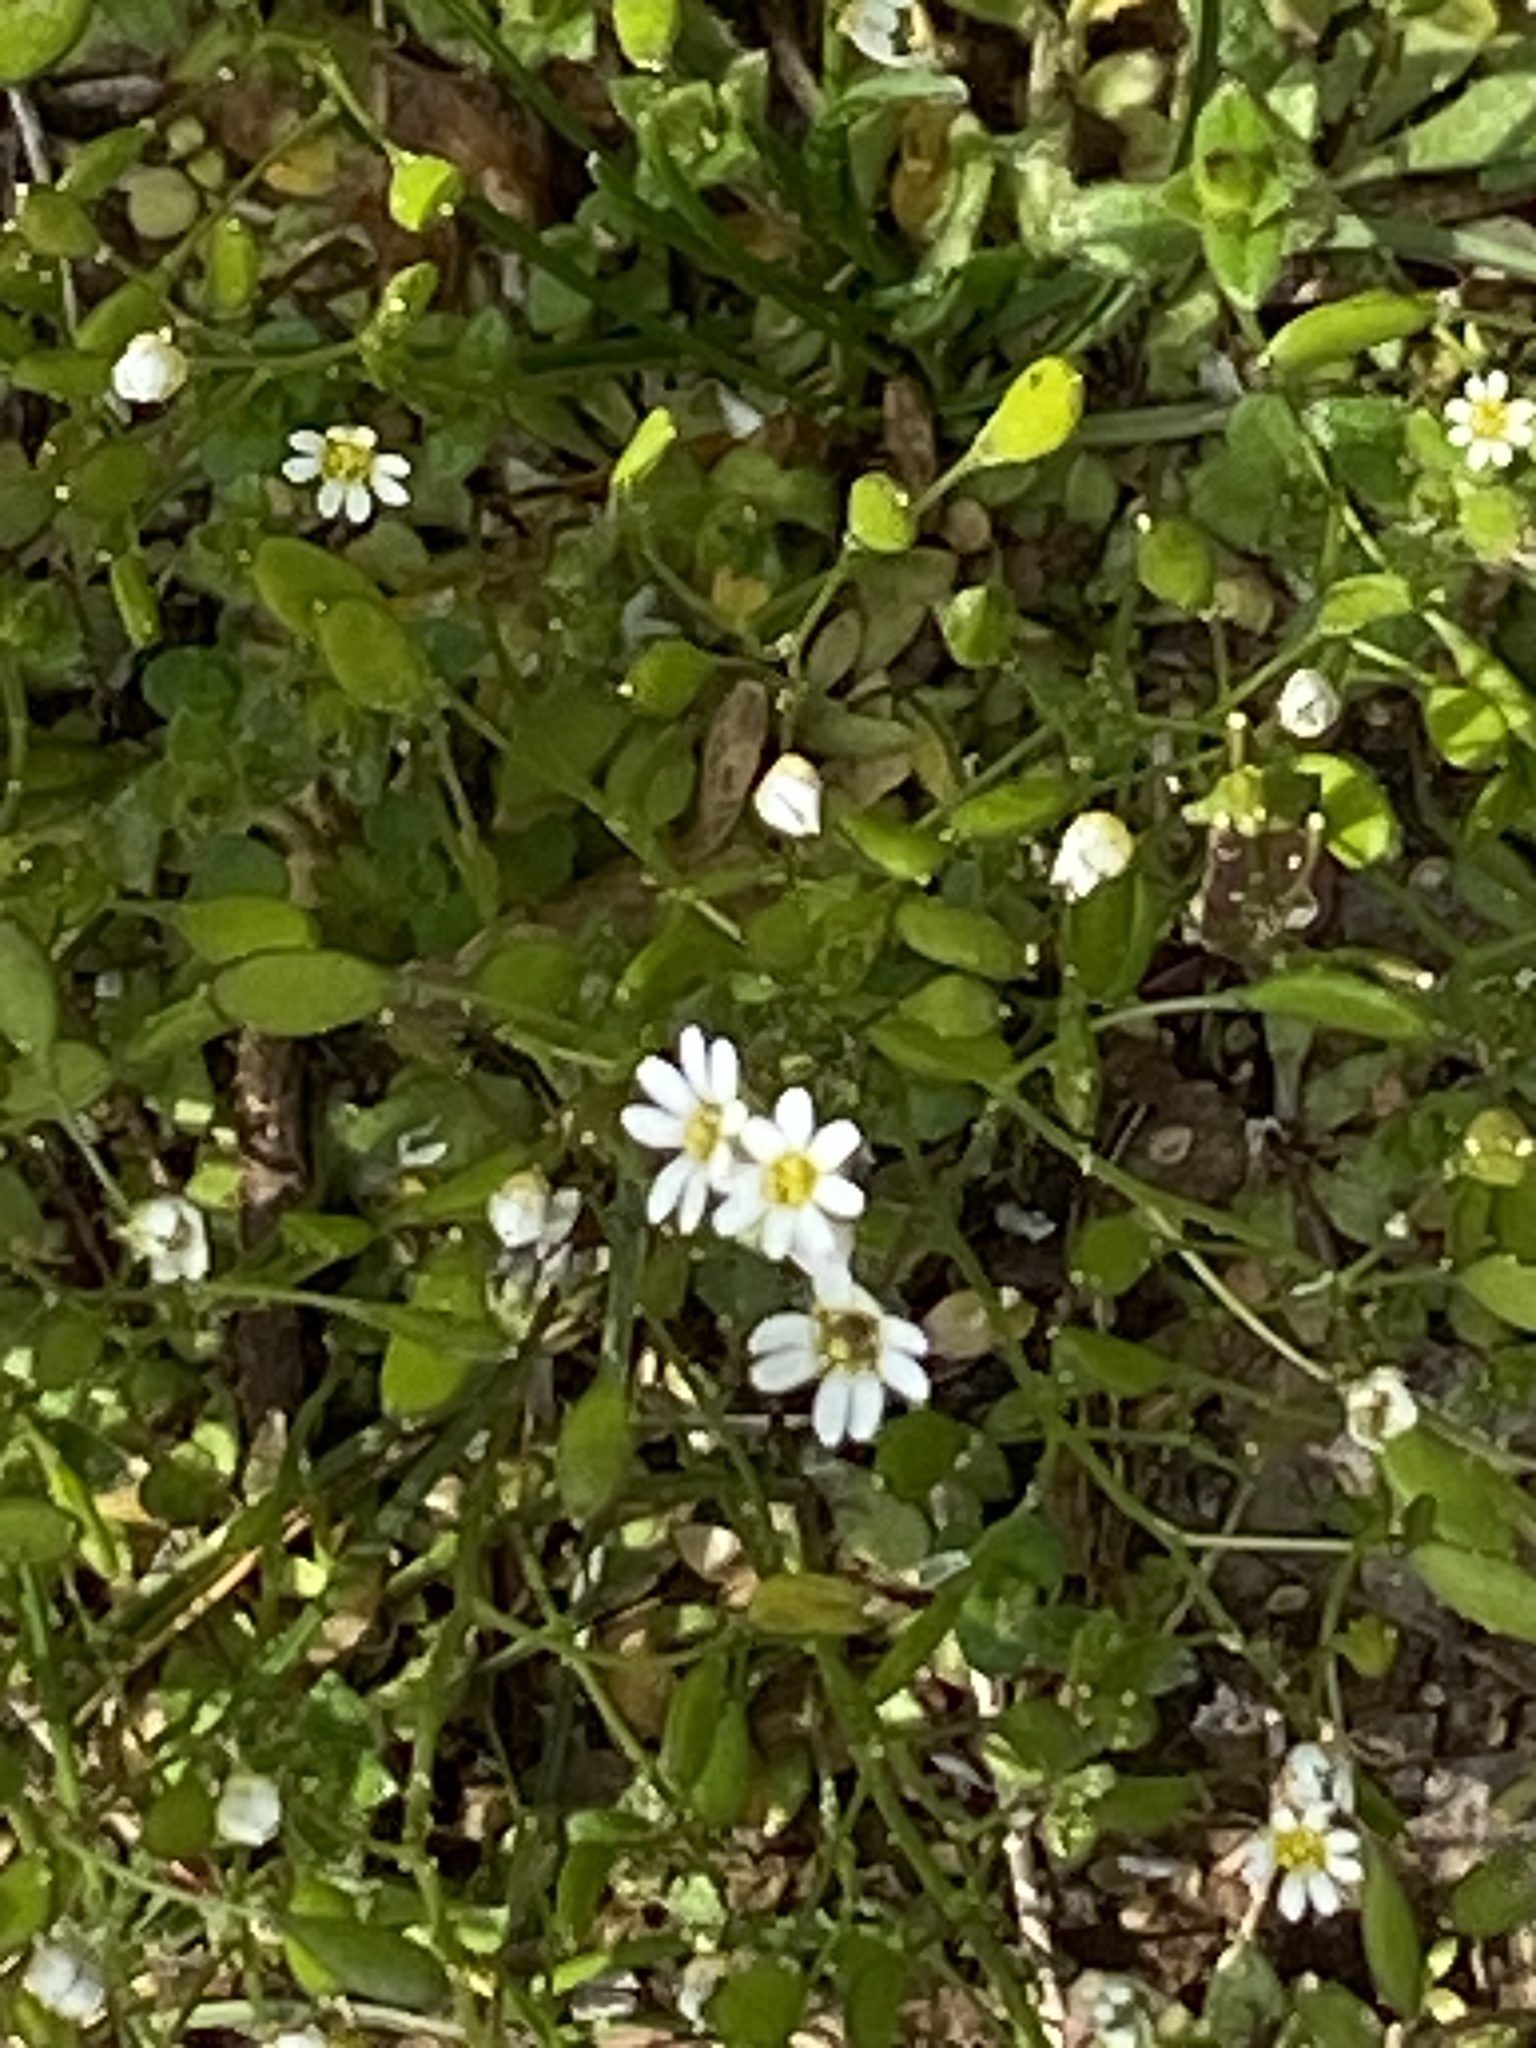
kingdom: Plantae
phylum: Tracheophyta
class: Magnoliopsida
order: Brassicales
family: Brassicaceae
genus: Draba
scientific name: Draba verna
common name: Spring draba
